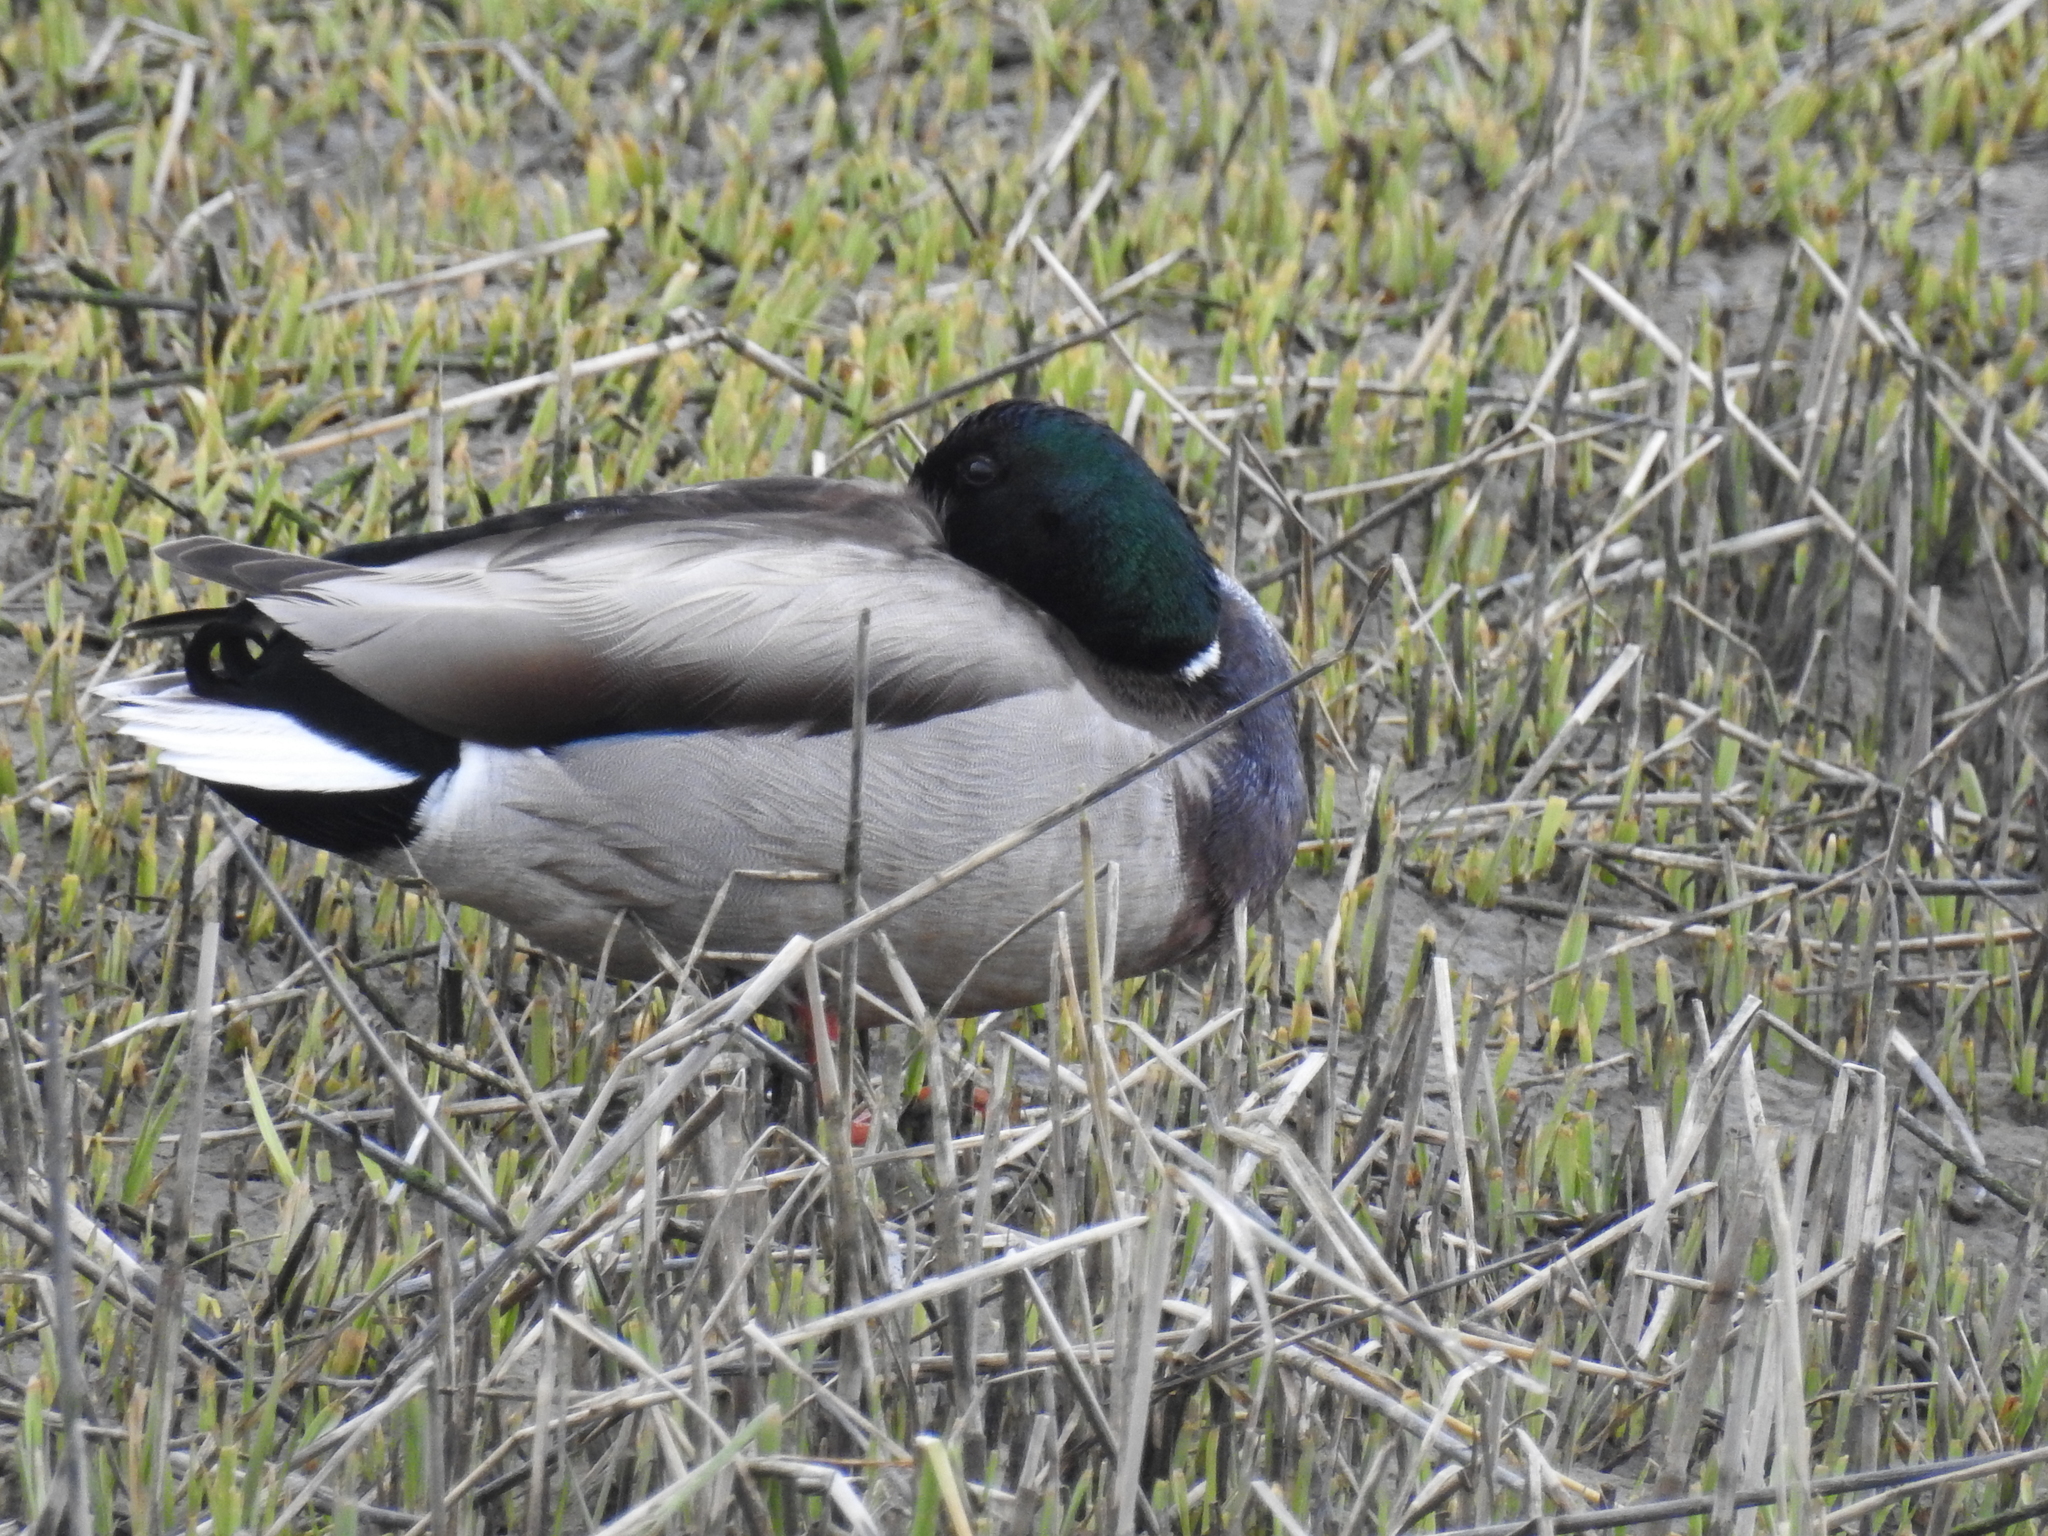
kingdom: Animalia
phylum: Chordata
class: Aves
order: Anseriformes
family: Anatidae
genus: Anas
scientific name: Anas platyrhynchos
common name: Mallard
